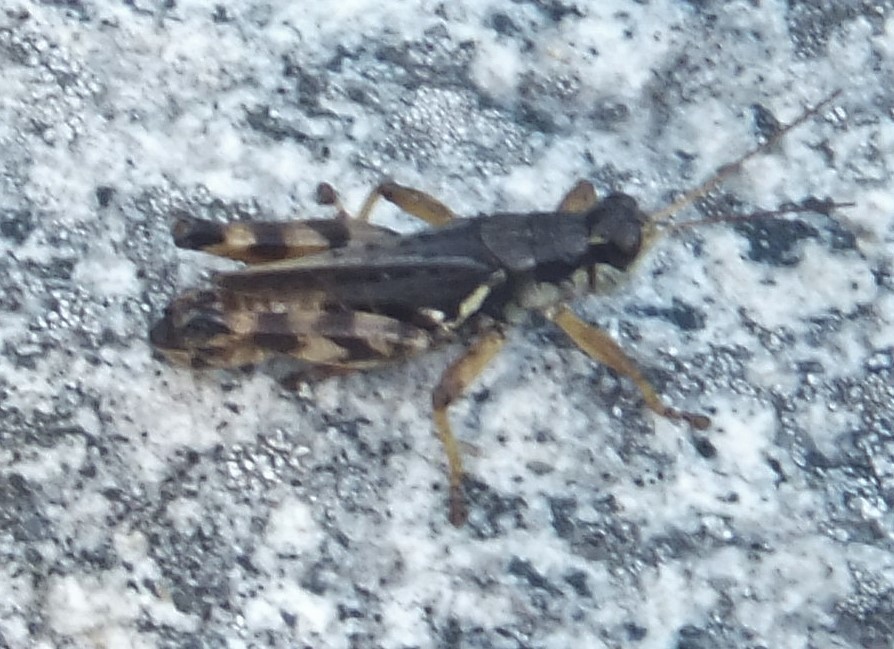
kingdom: Animalia
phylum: Arthropoda
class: Insecta
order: Orthoptera
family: Acrididae
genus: Melanoplus
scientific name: Melanoplus fasciatus
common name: Huckleberry locust
